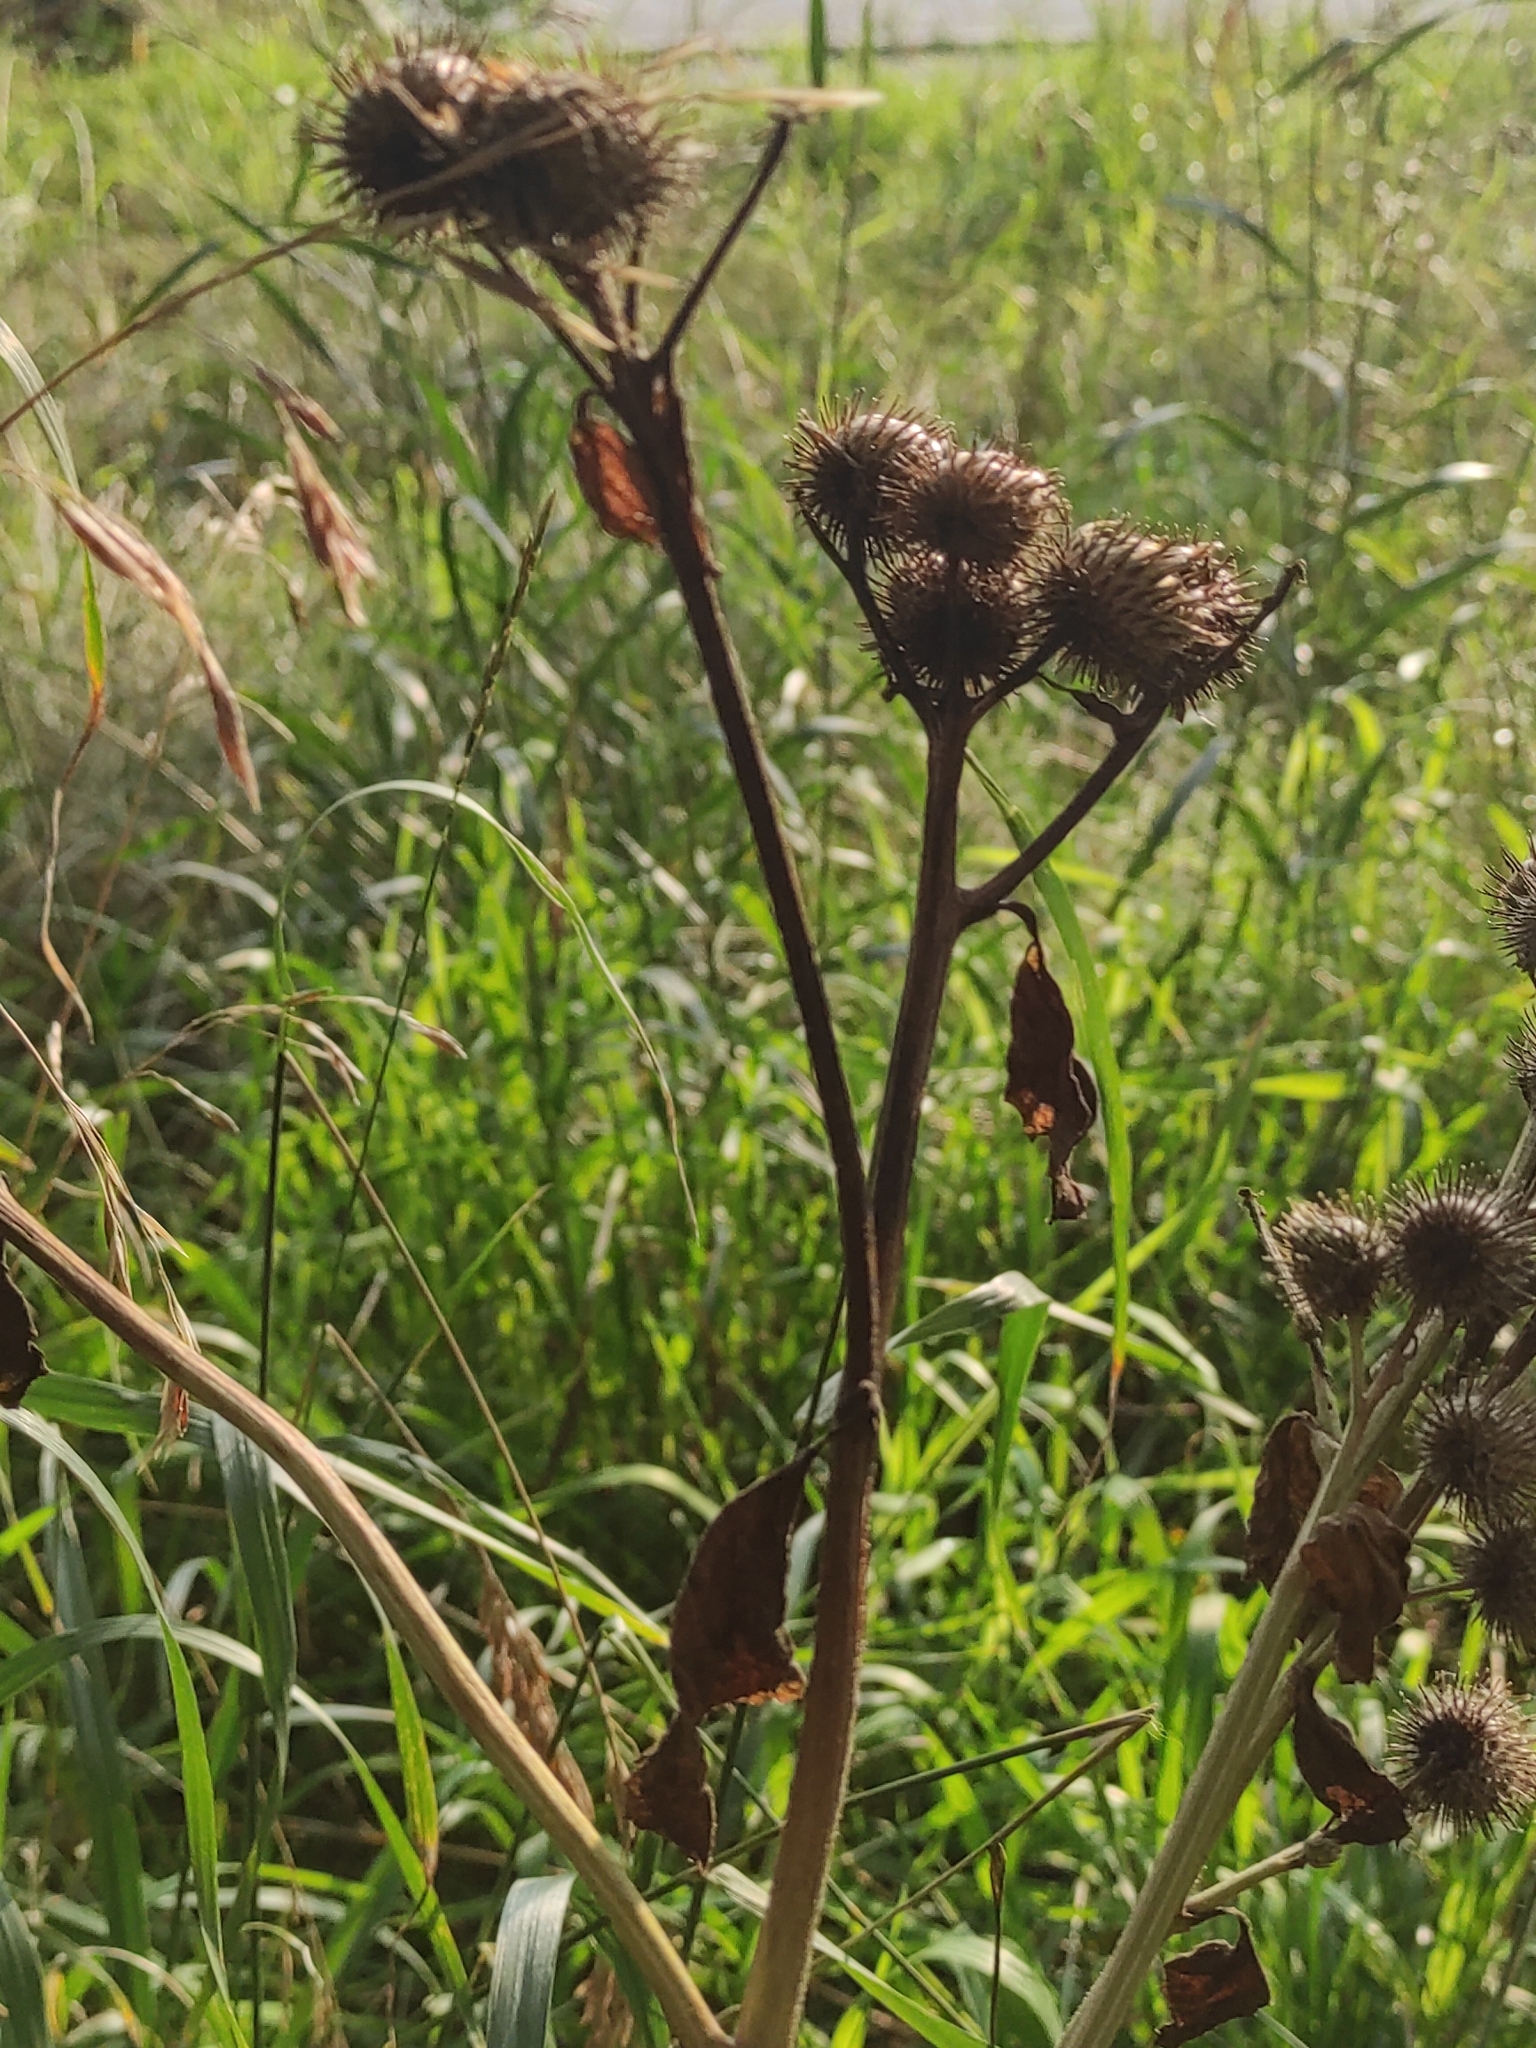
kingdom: Plantae
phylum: Tracheophyta
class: Magnoliopsida
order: Asterales
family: Asteraceae
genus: Arctium
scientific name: Arctium tomentosum
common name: Woolly burdock
